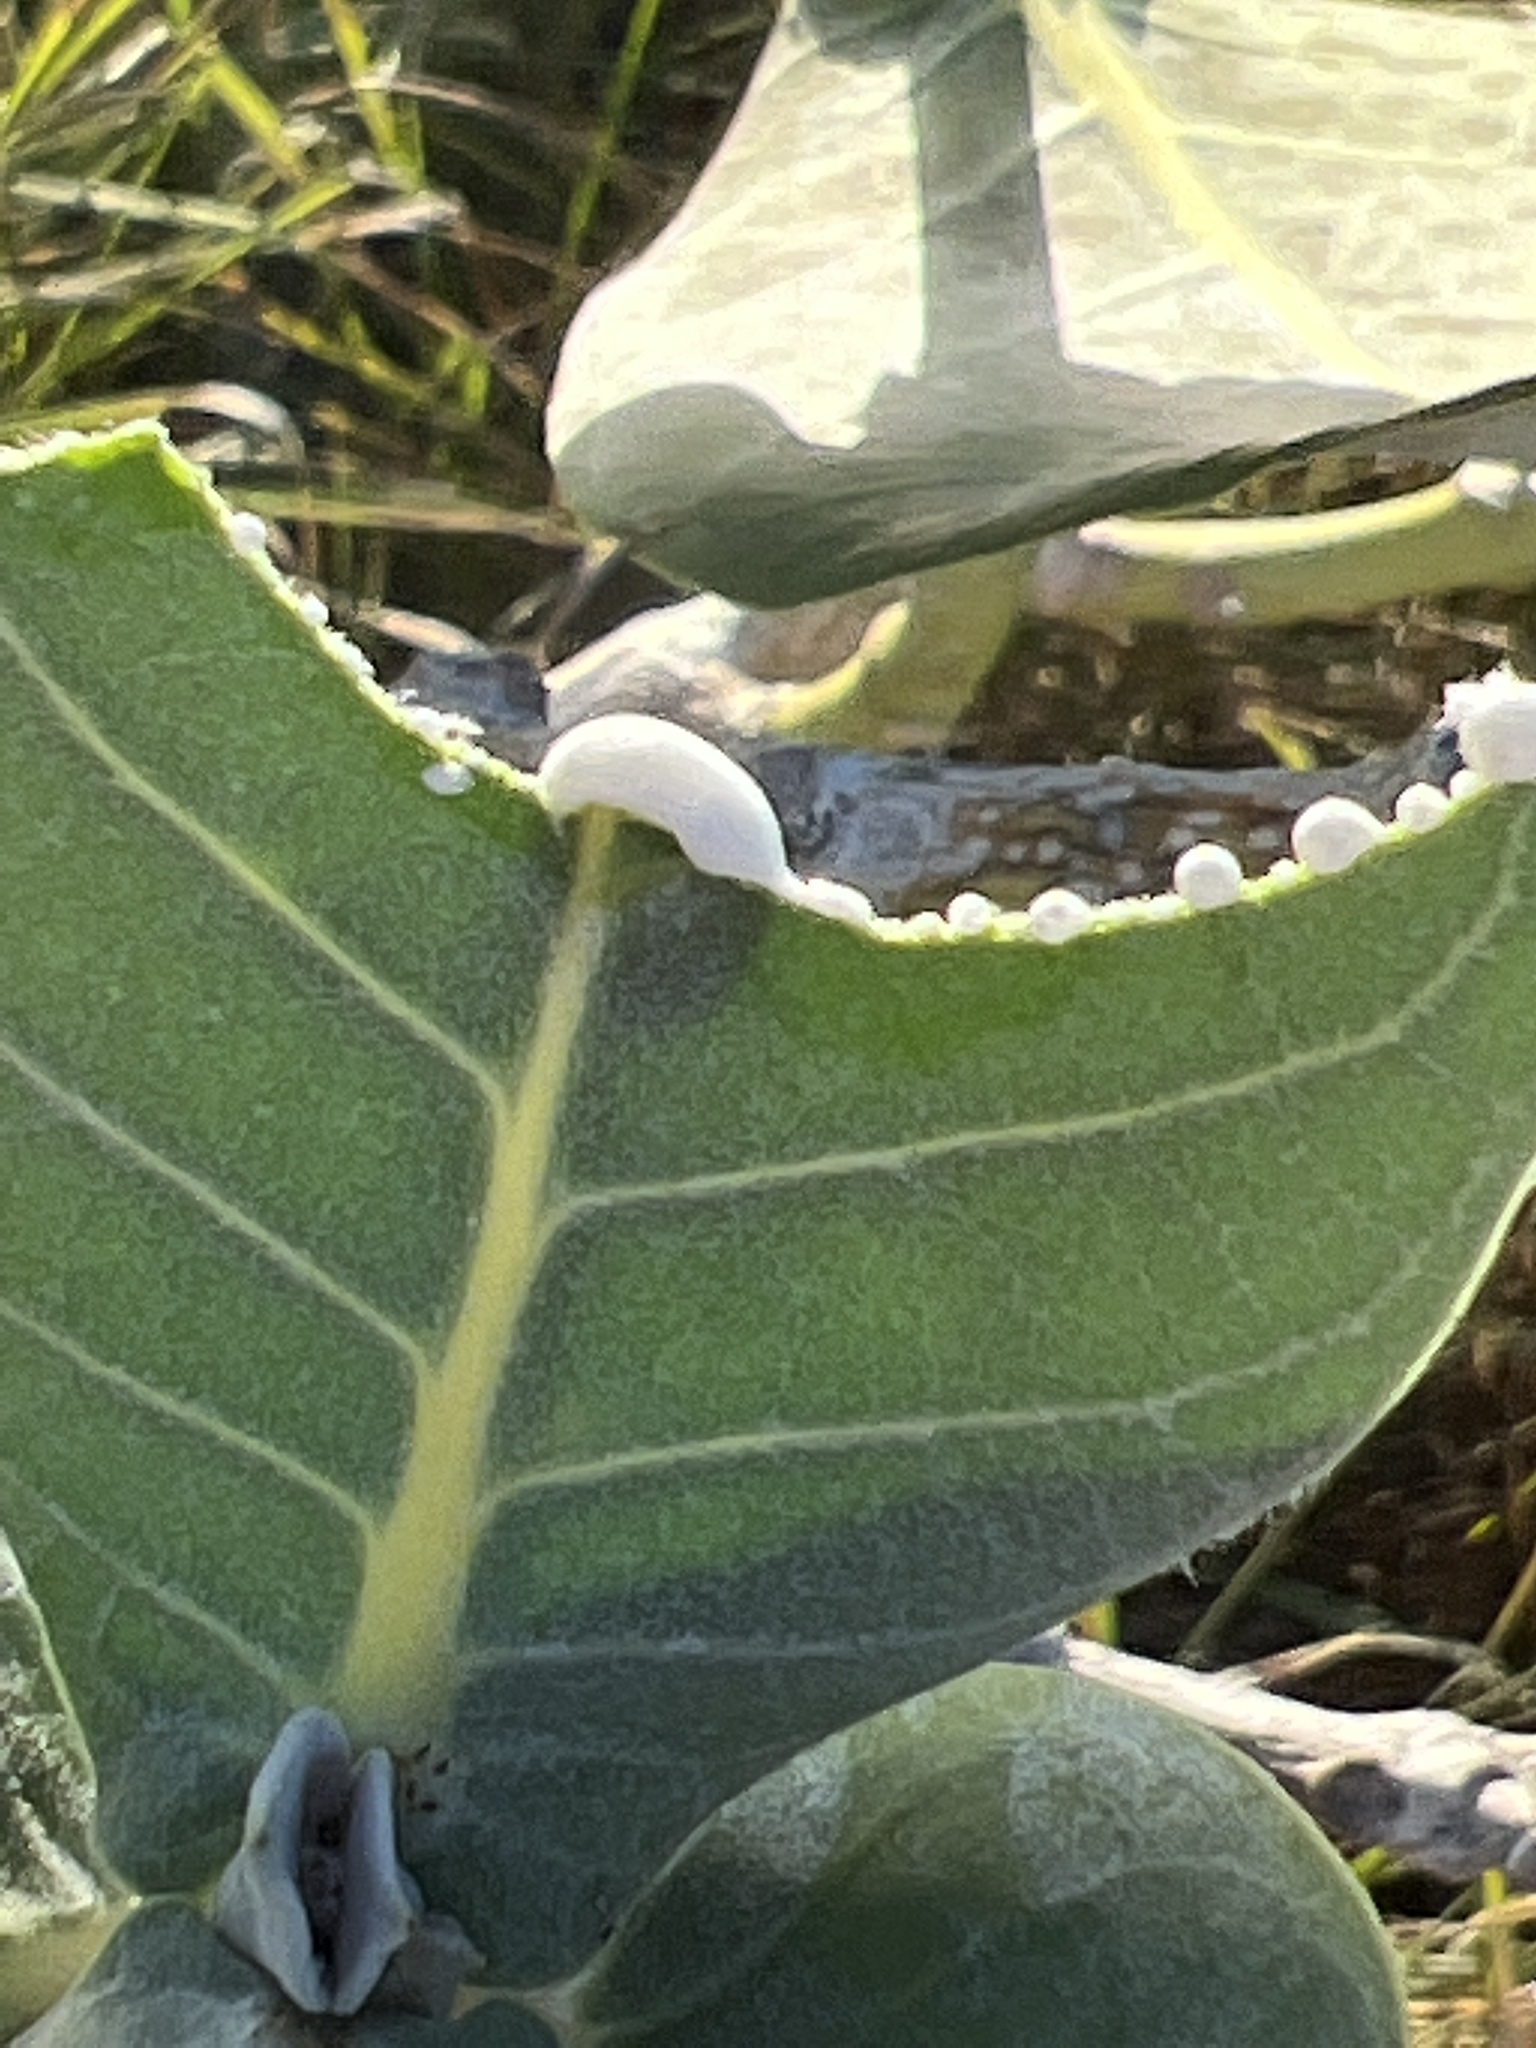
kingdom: Plantae
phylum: Tracheophyta
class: Magnoliopsida
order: Gentianales
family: Apocynaceae
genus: Calotropis
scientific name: Calotropis procera
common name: Roostertree
